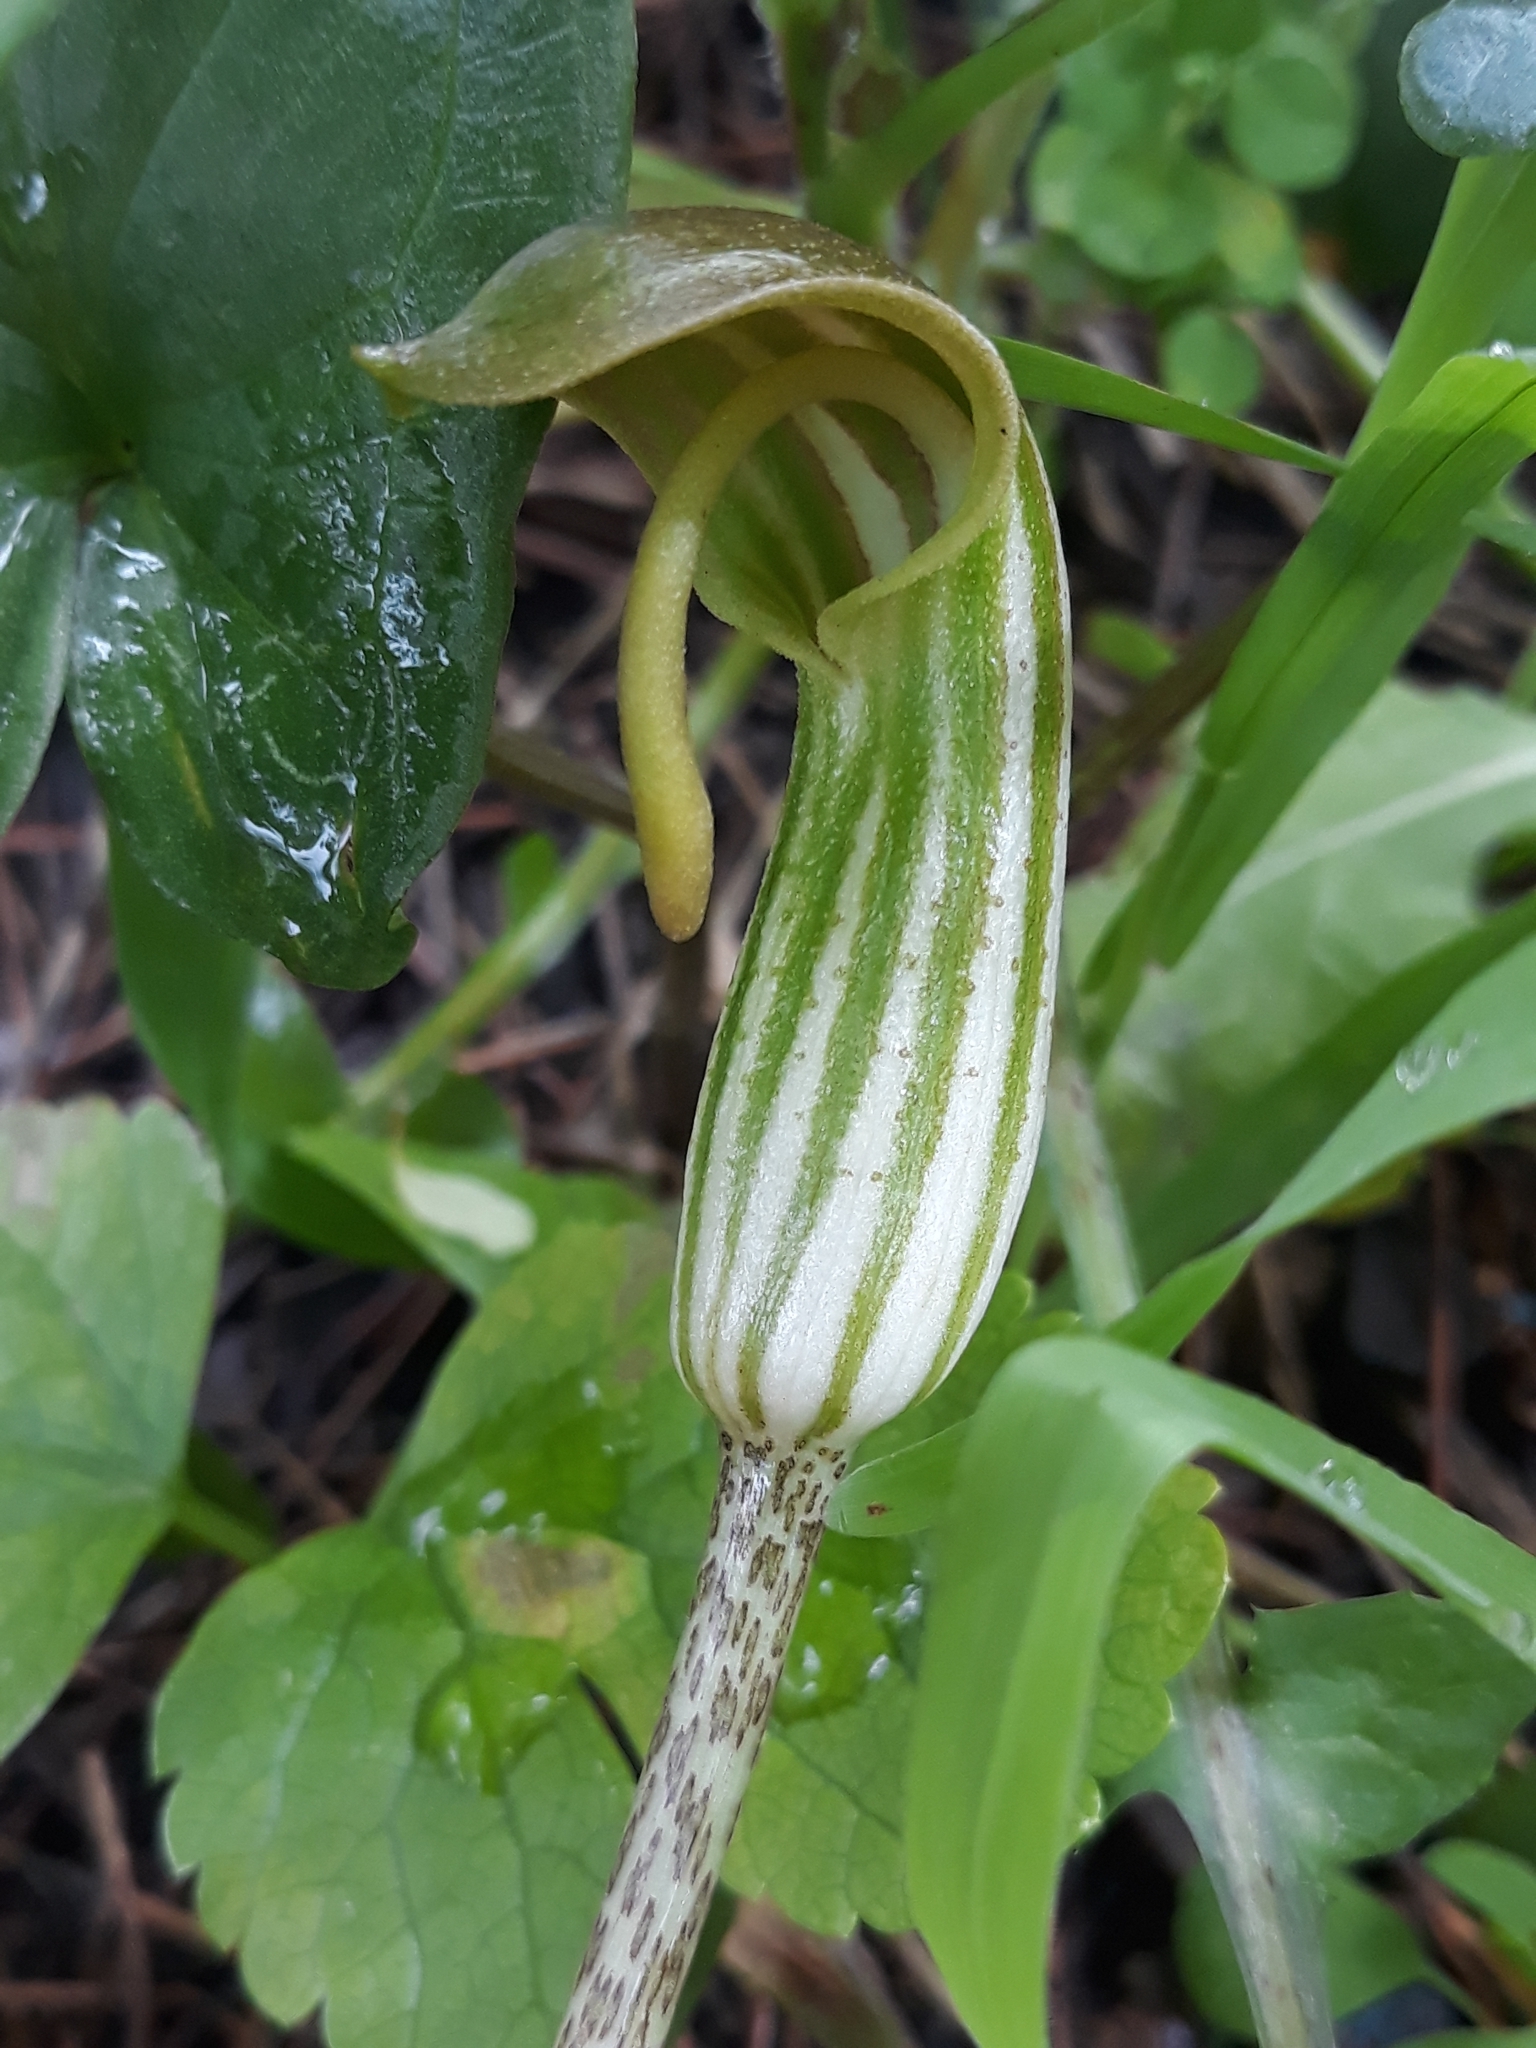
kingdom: Plantae
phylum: Tracheophyta
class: Liliopsida
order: Alismatales
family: Araceae
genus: Arisarum
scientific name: Arisarum vulgare
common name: Common arisarum
